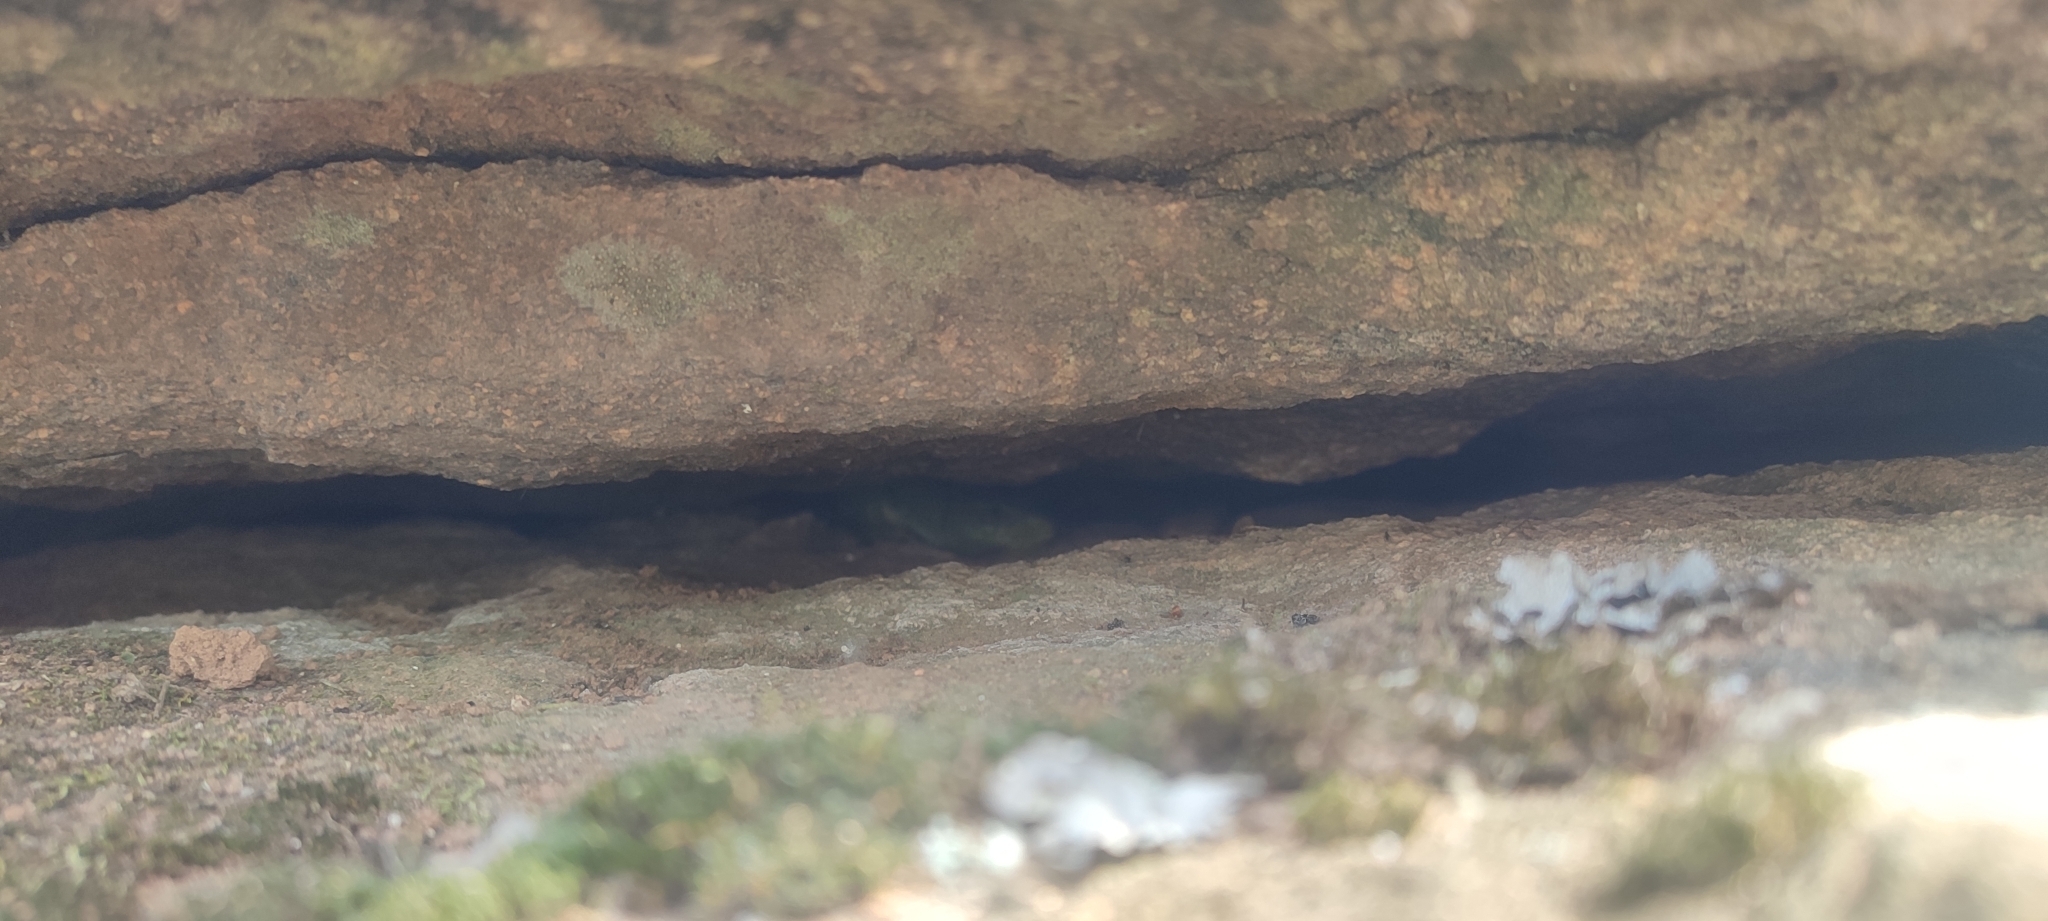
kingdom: Animalia
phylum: Chordata
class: Squamata
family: Lacertidae
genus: Timon
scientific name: Timon lepidus
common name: Ocellated lizard
